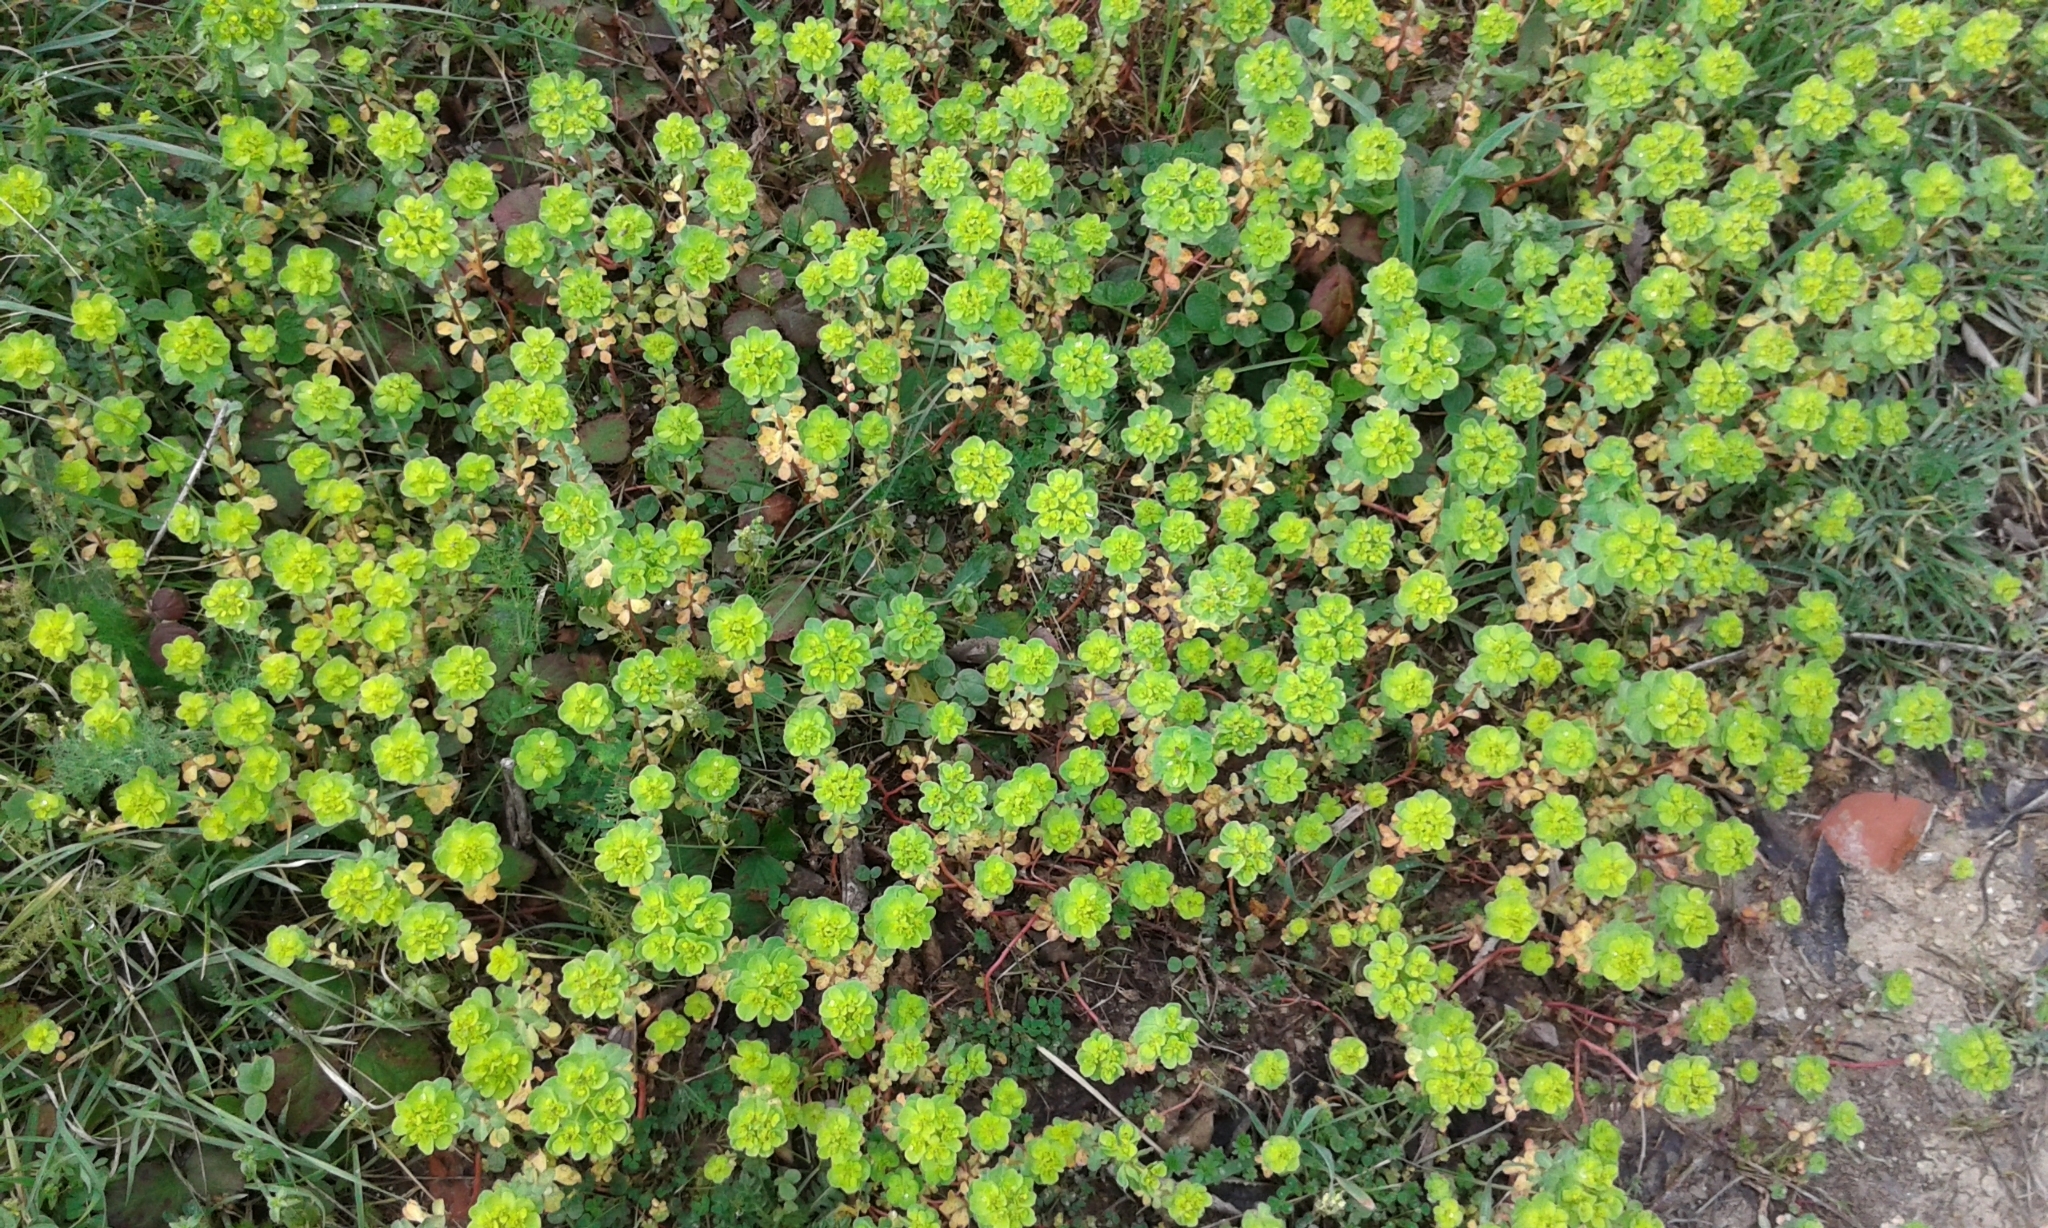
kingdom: Plantae
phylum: Tracheophyta
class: Magnoliopsida
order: Malpighiales
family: Euphorbiaceae
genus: Euphorbia
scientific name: Euphorbia helioscopia
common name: Sun spurge
